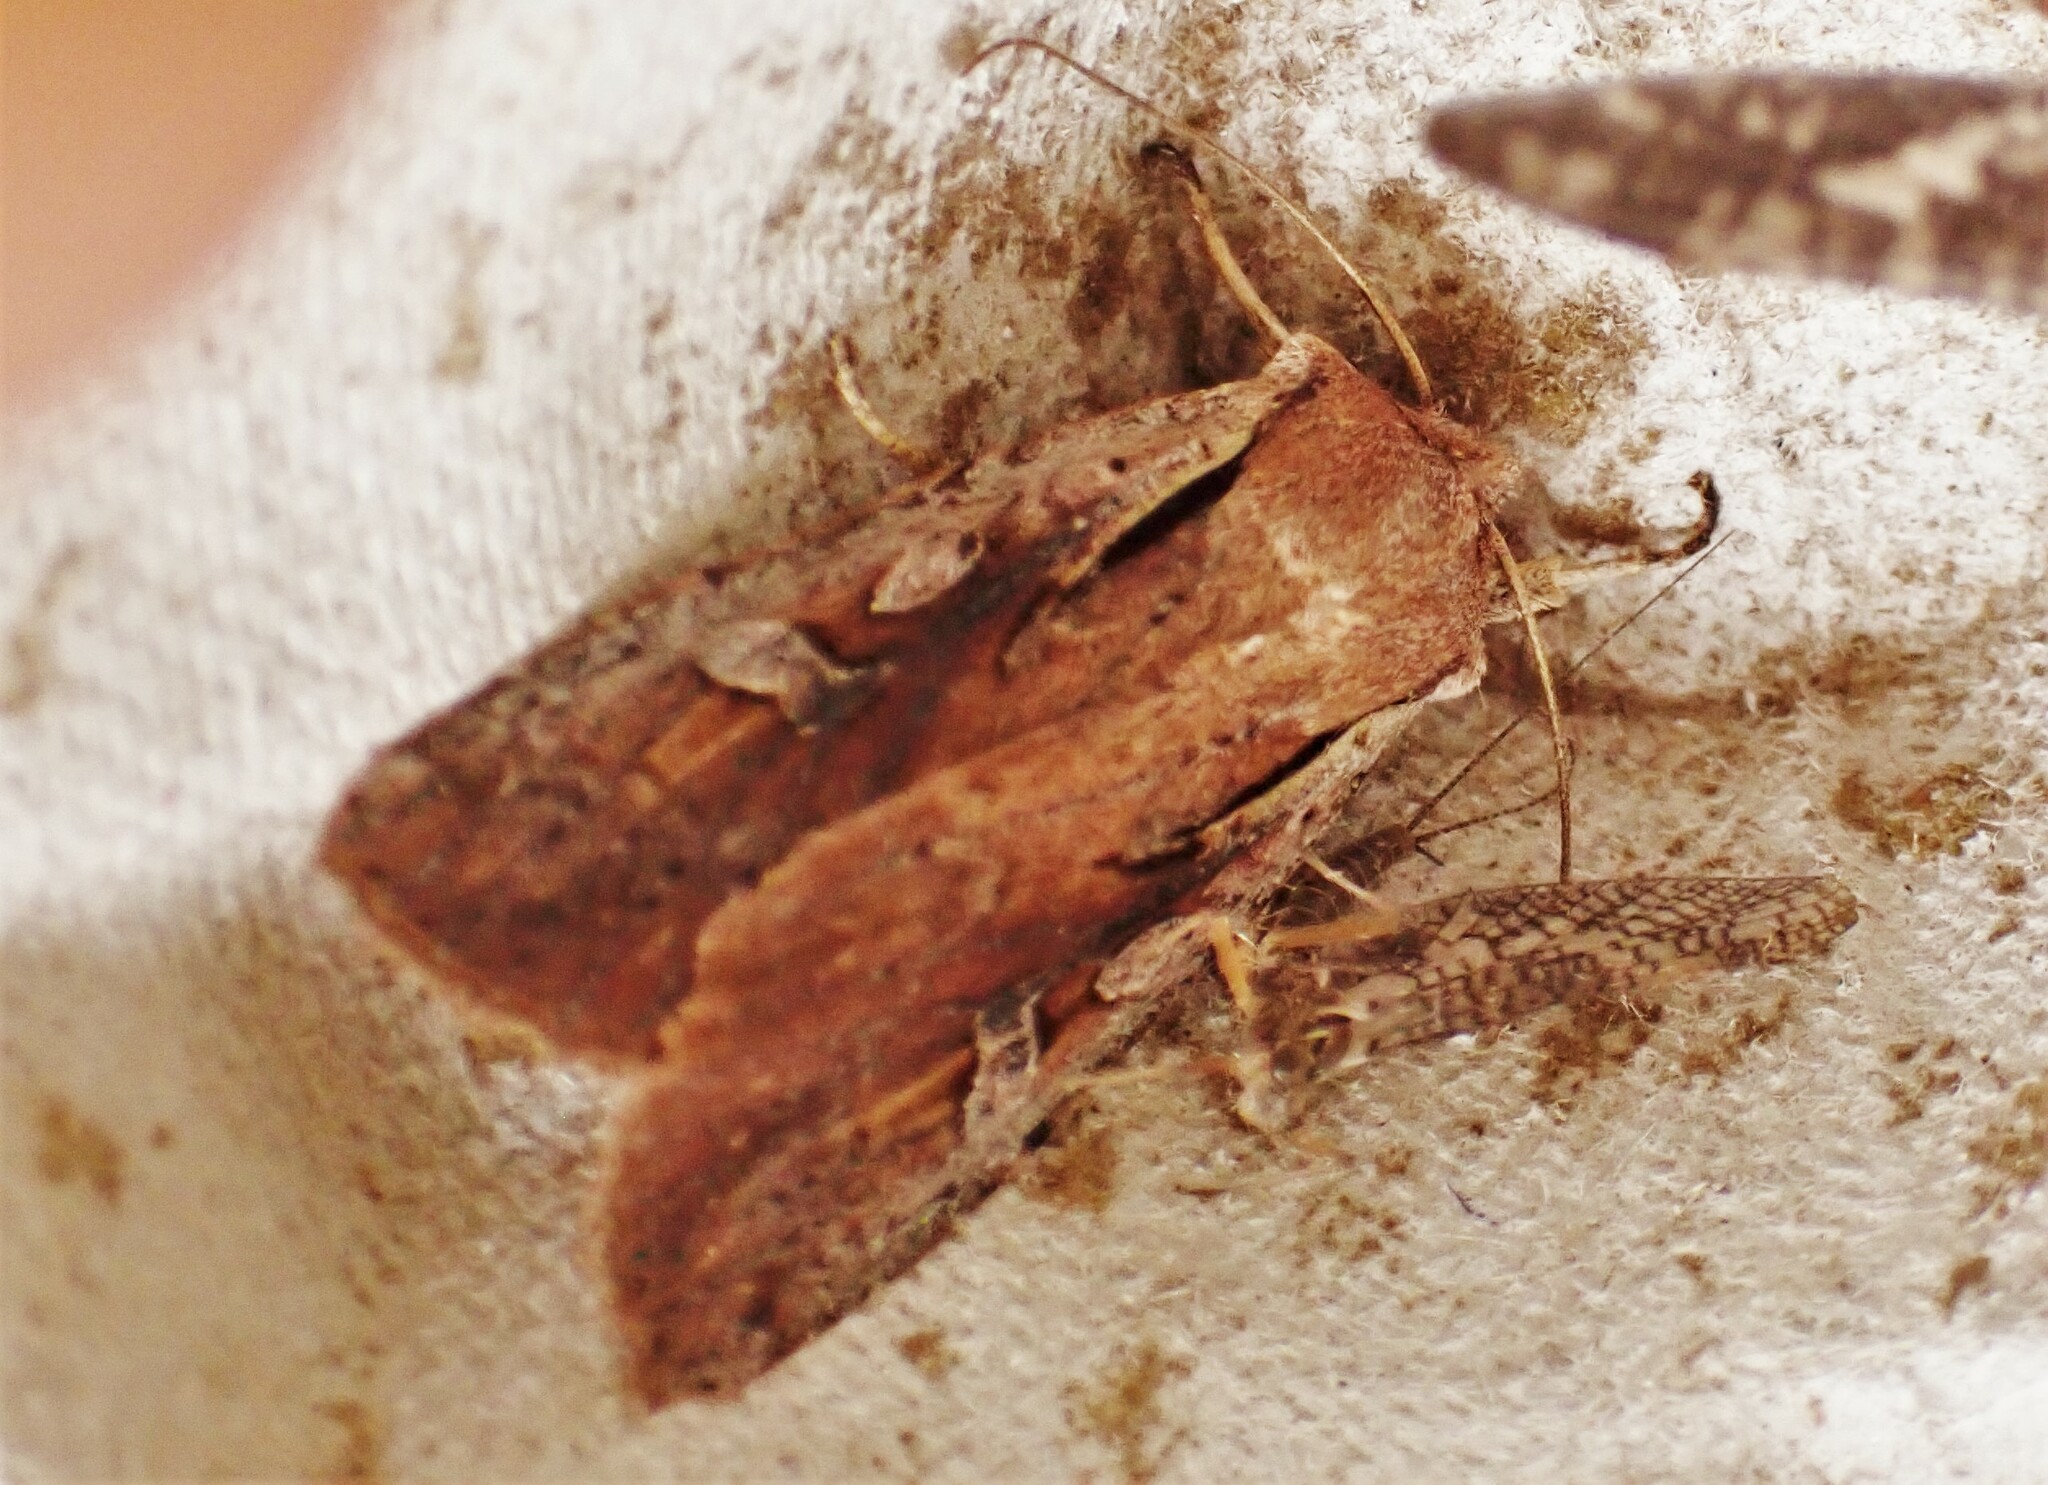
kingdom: Animalia
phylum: Arthropoda
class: Insecta
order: Lepidoptera
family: Noctuidae
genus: Ichneutica
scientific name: Ichneutica atristriga
